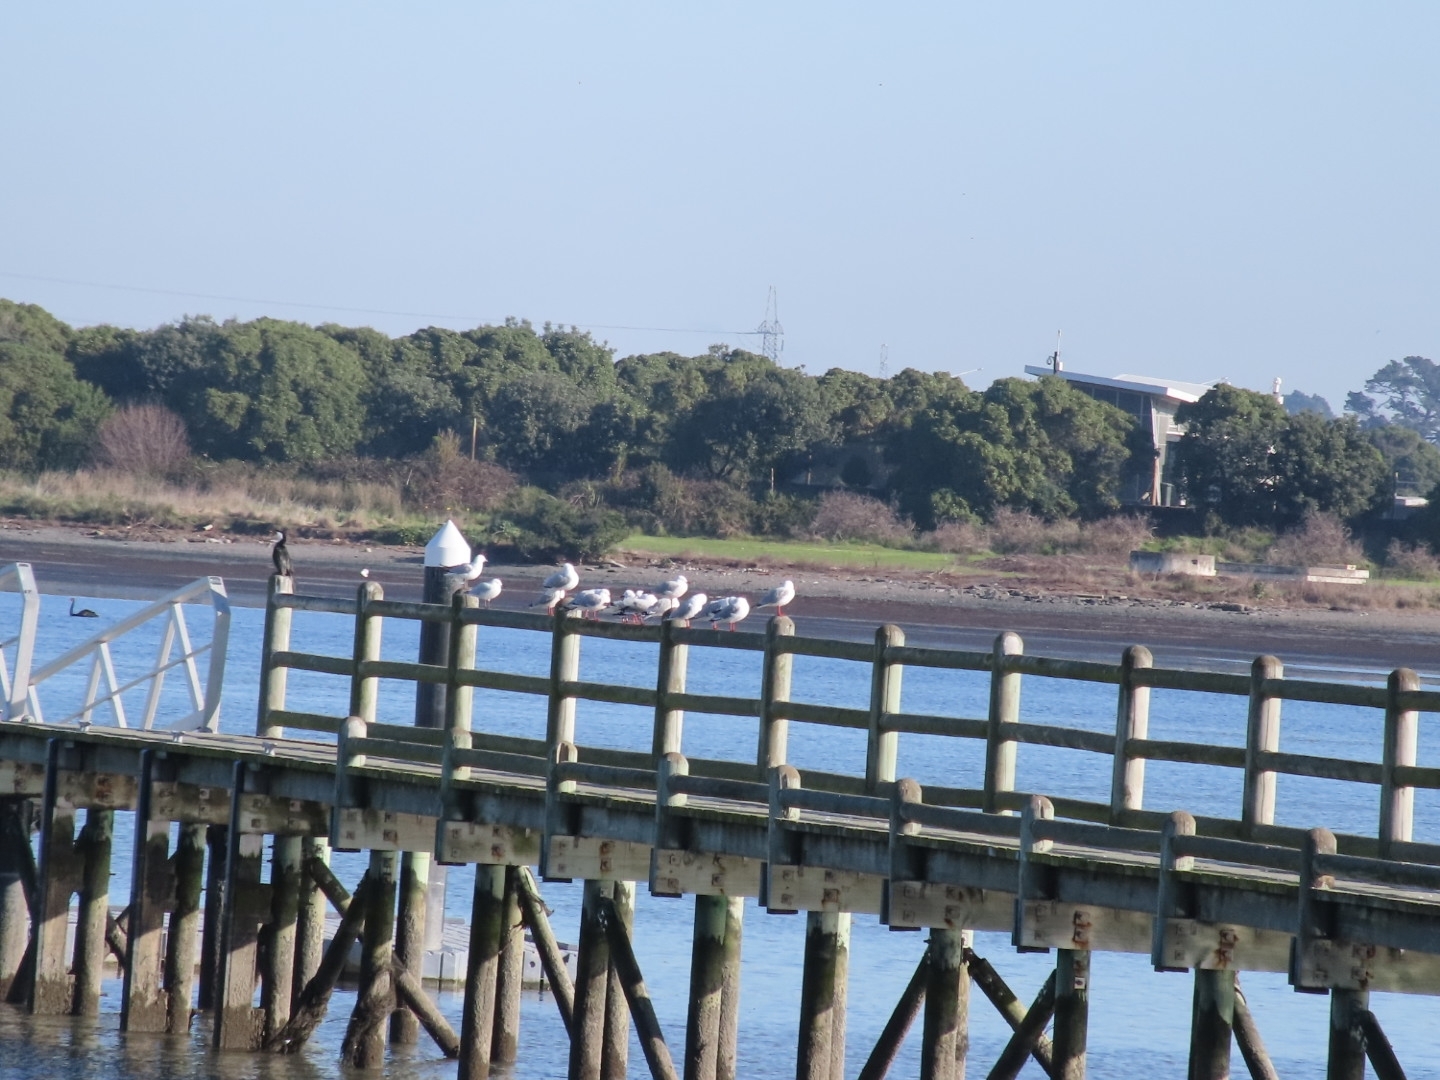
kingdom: Animalia
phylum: Chordata
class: Aves
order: Charadriiformes
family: Laridae
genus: Chroicocephalus
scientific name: Chroicocephalus novaehollandiae
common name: Silver gull
